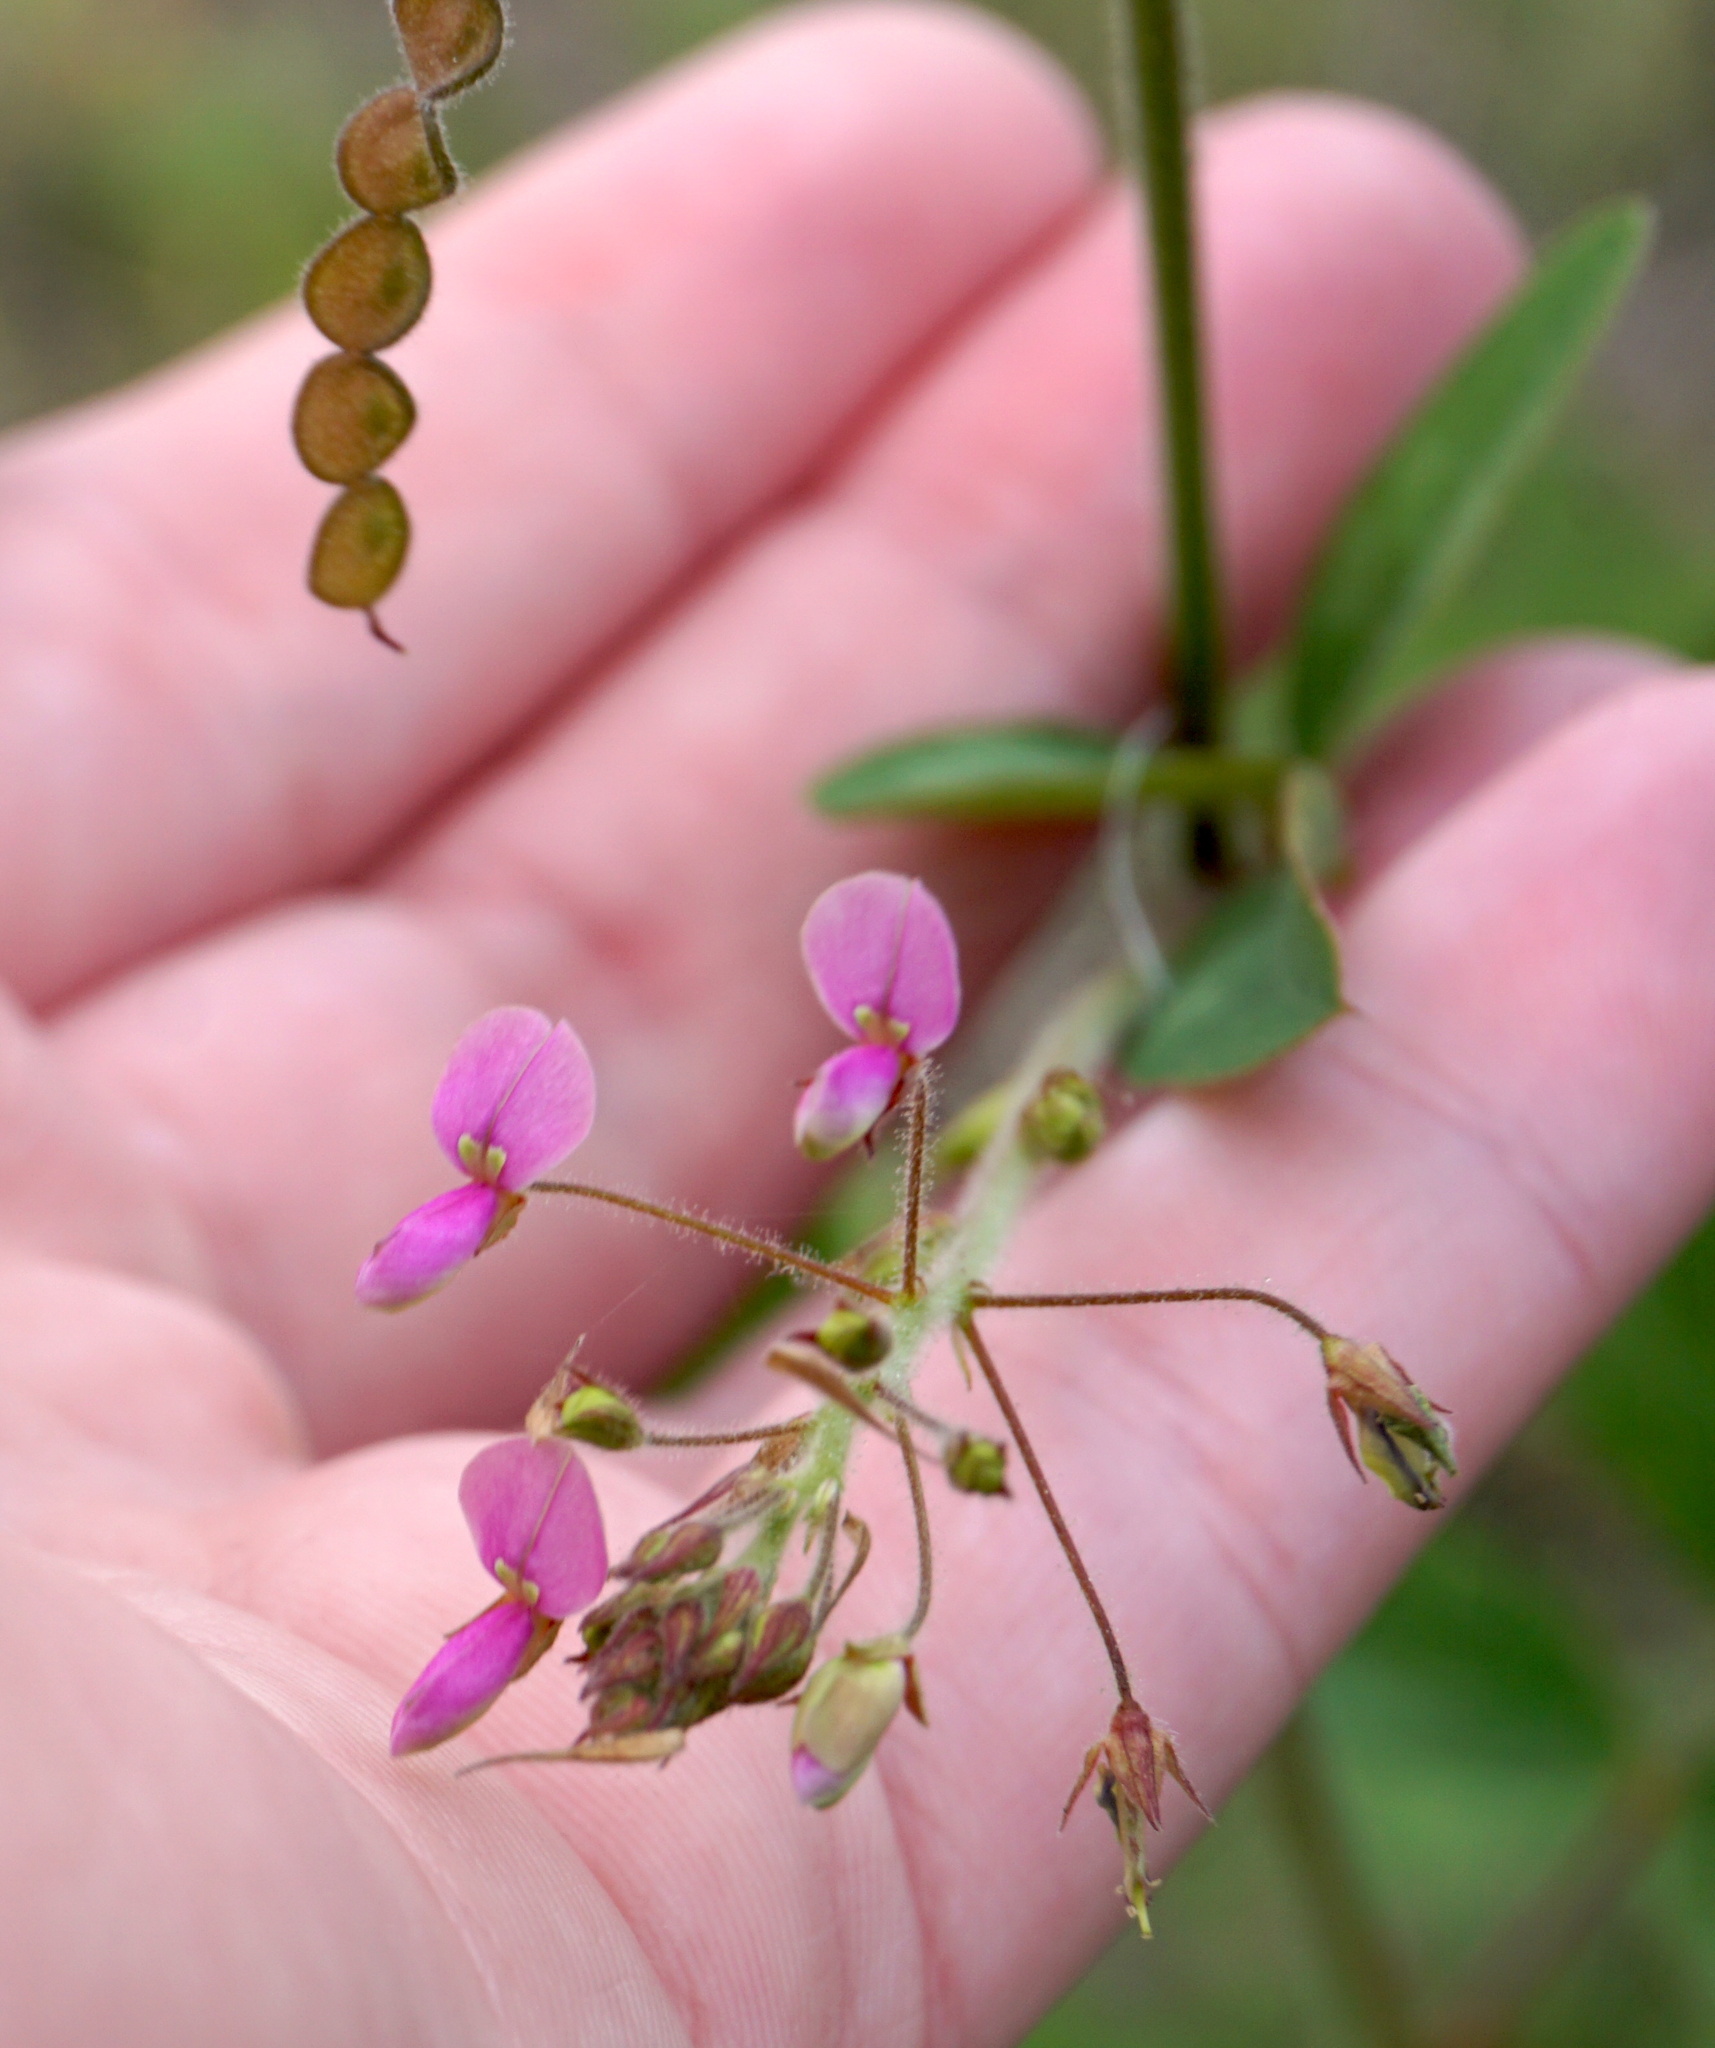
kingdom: Plantae
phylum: Tracheophyta
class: Magnoliopsida
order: Fabales
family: Fabaceae
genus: Desmodium
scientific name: Desmodium tortuosum
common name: Dixie ticktrefoil
